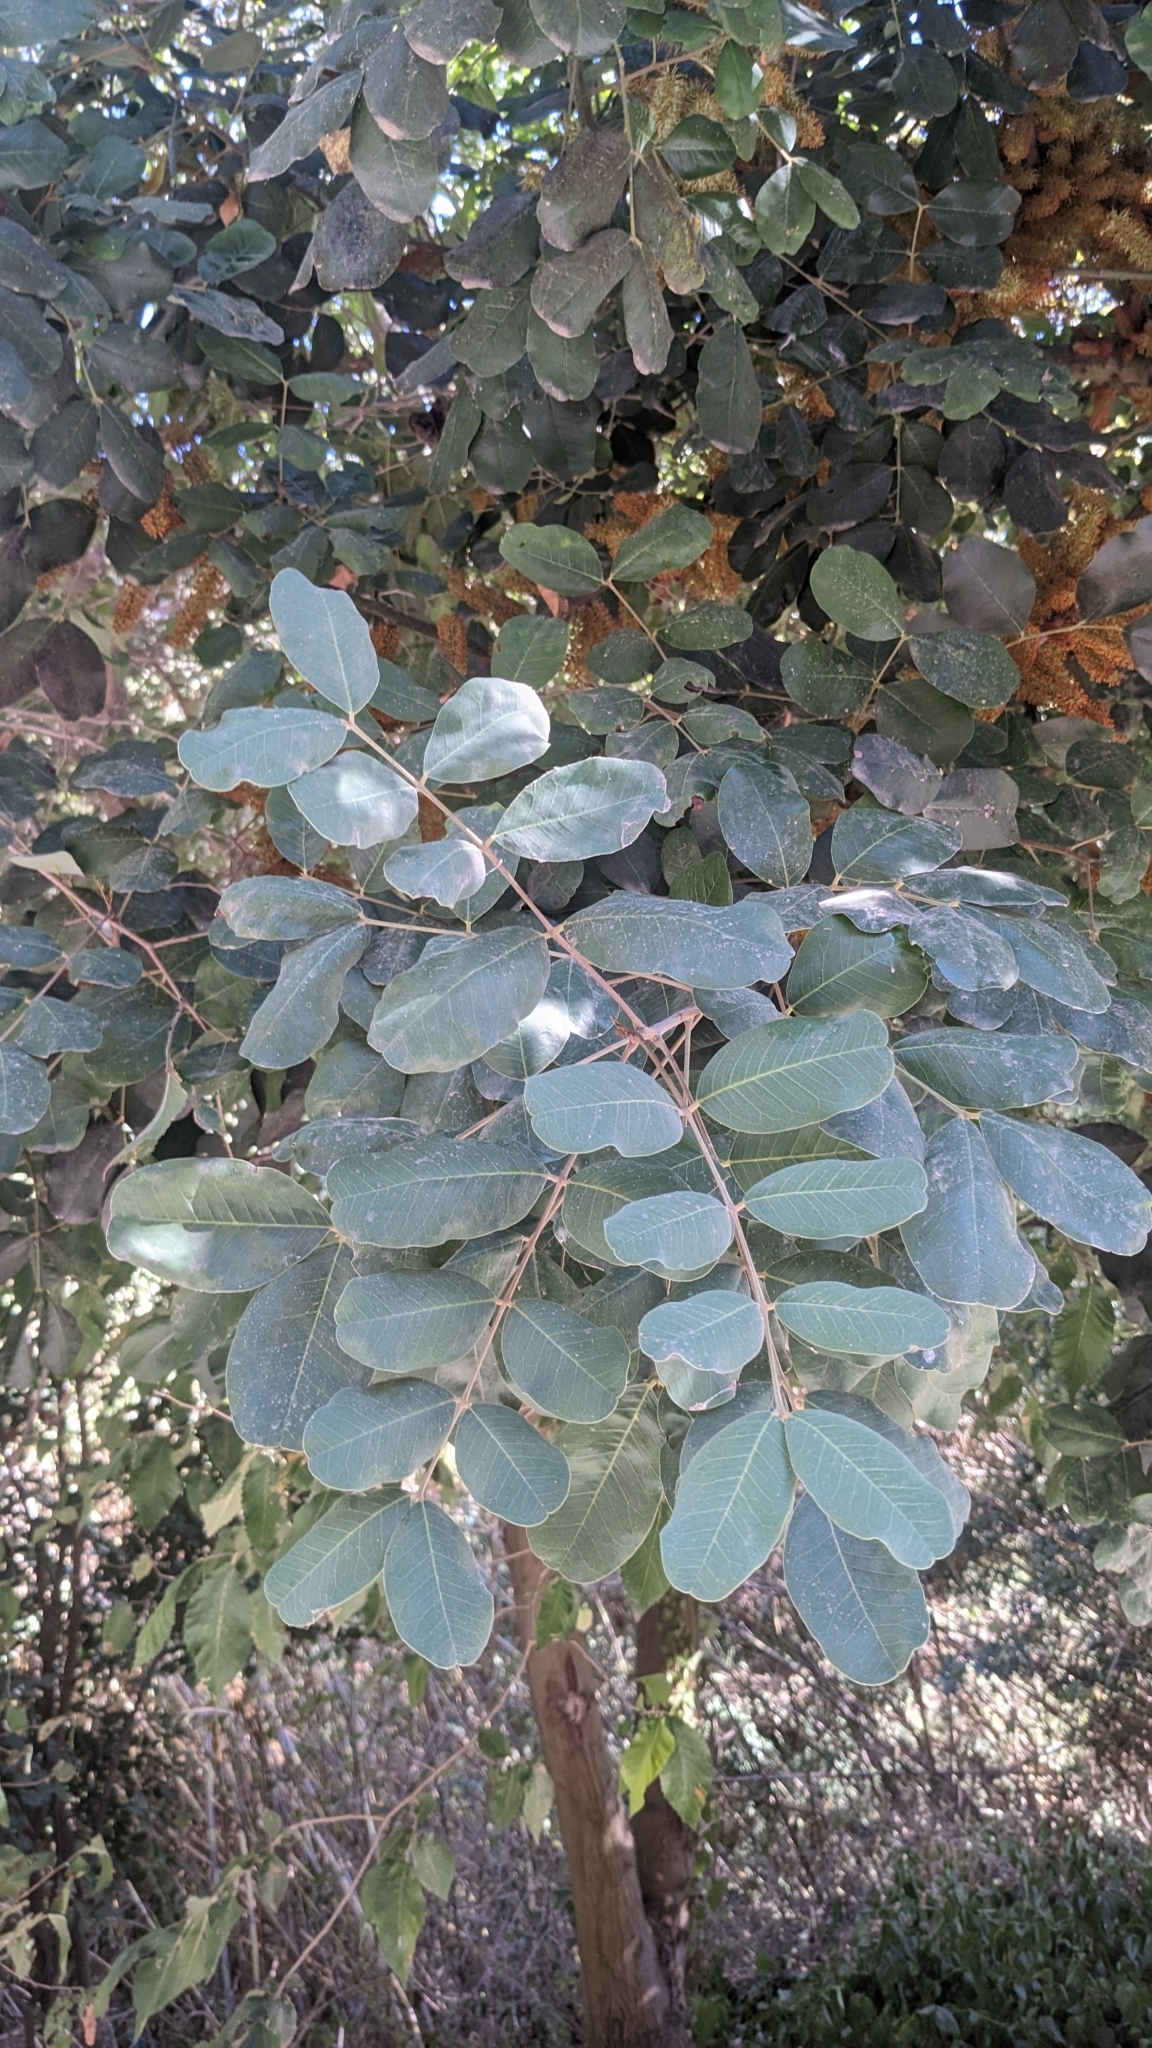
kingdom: Plantae
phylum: Tracheophyta
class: Magnoliopsida
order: Fabales
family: Fabaceae
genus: Ceratonia
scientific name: Ceratonia siliqua
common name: Carob
